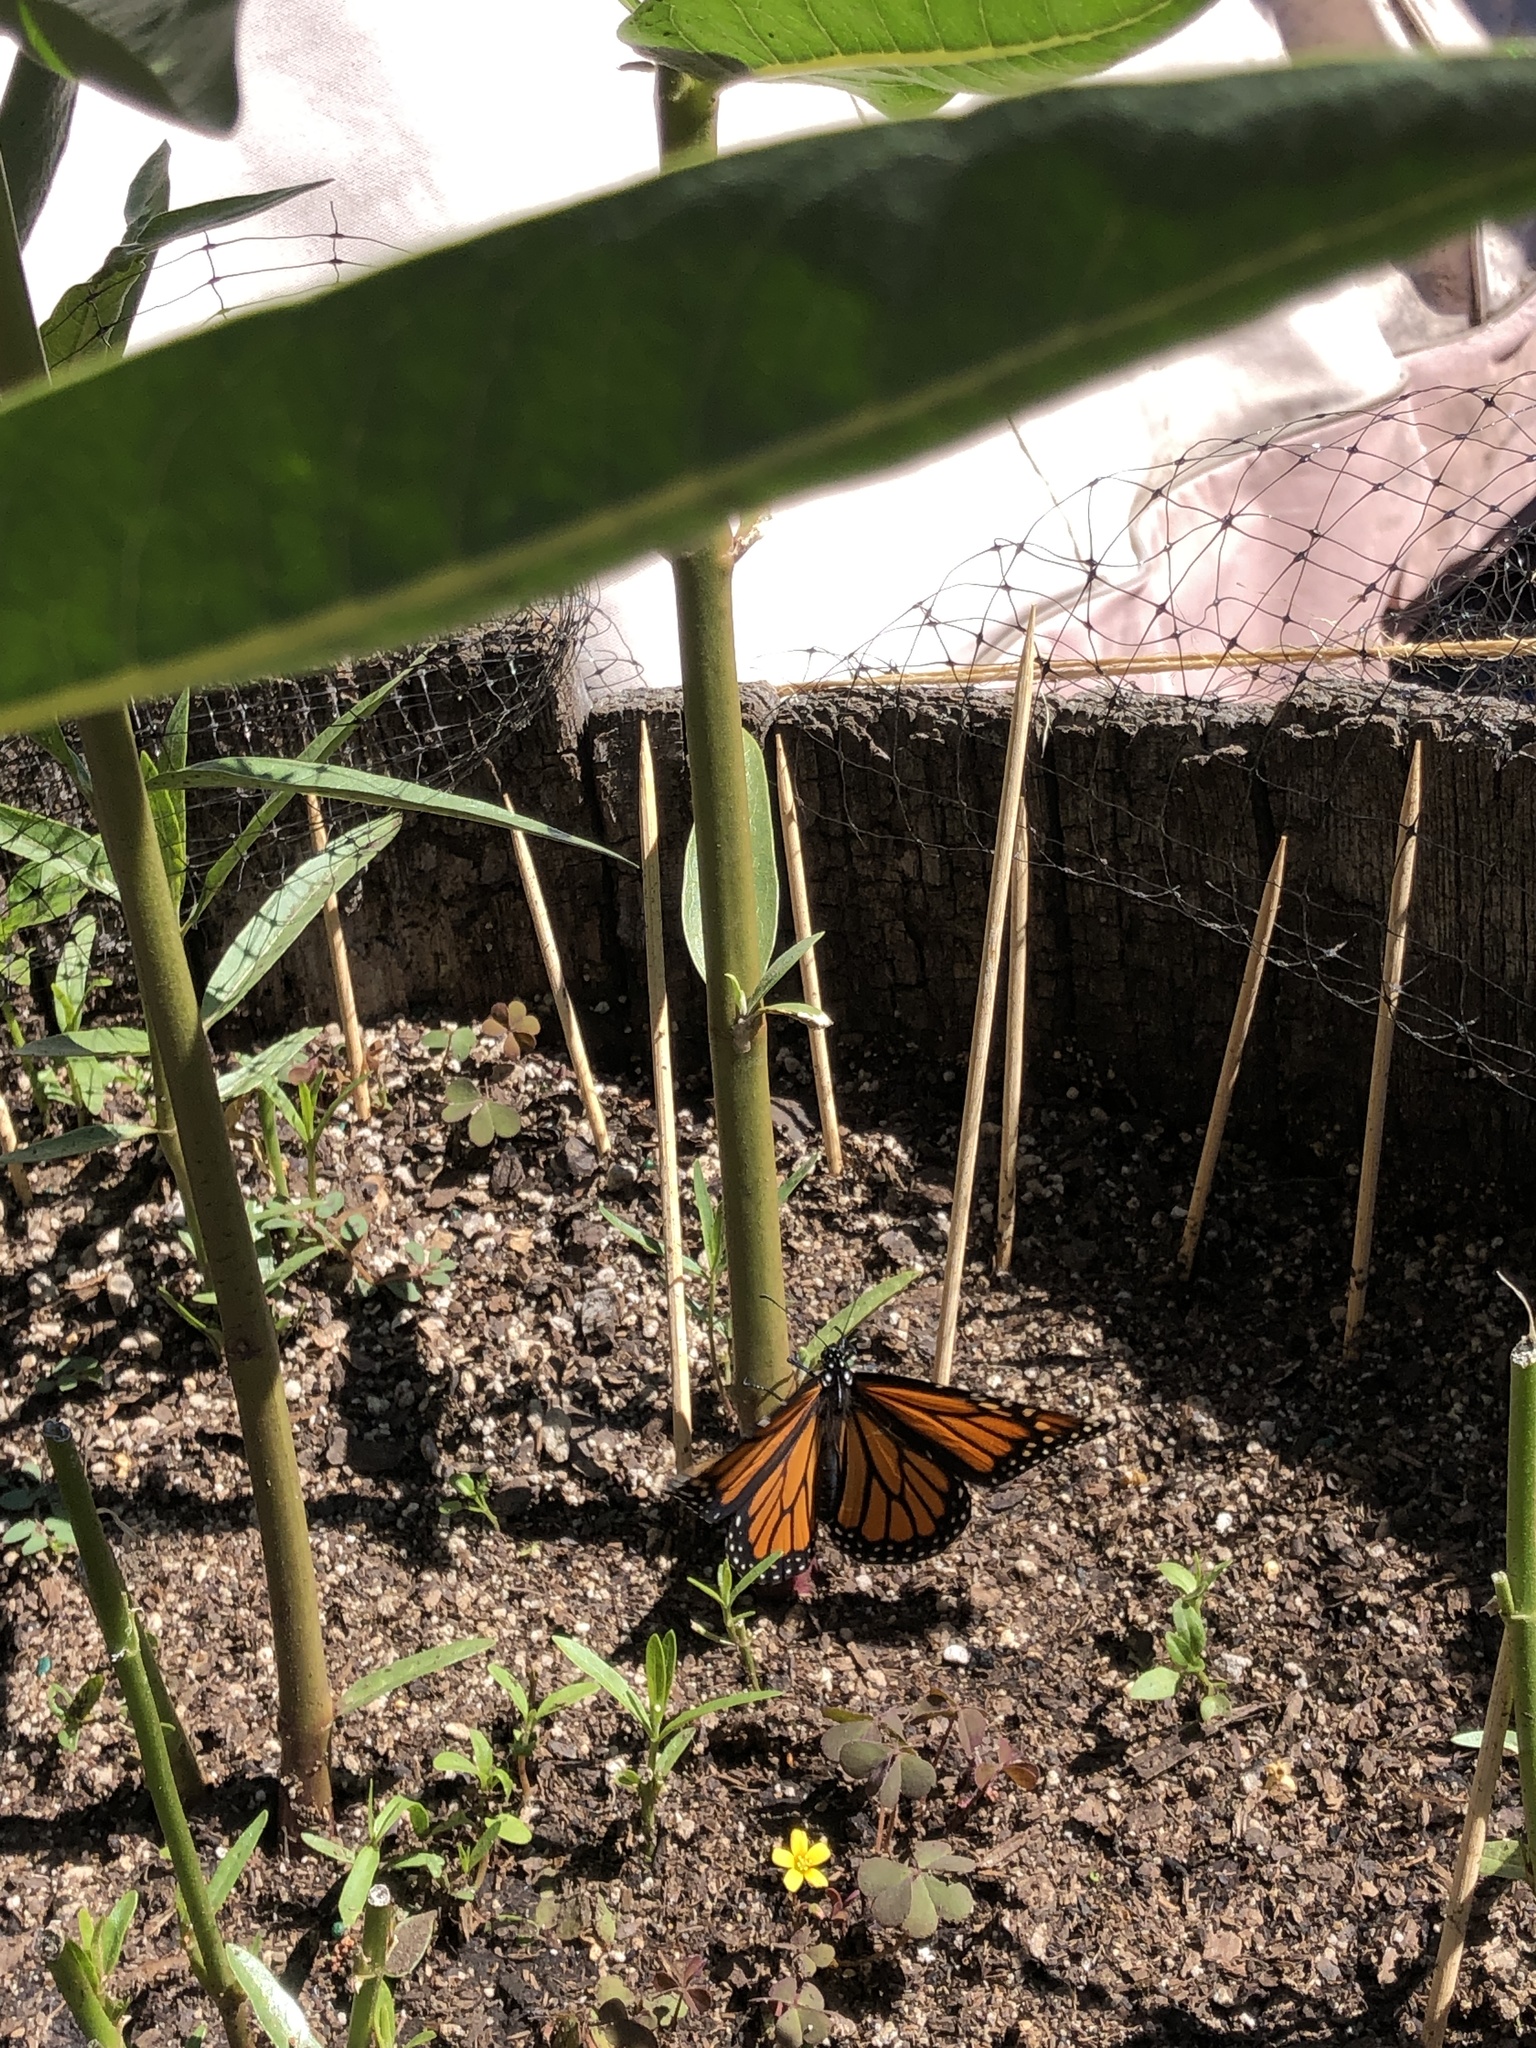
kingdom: Animalia
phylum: Arthropoda
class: Insecta
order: Lepidoptera
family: Nymphalidae
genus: Danaus
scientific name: Danaus plexippus
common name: Monarch
